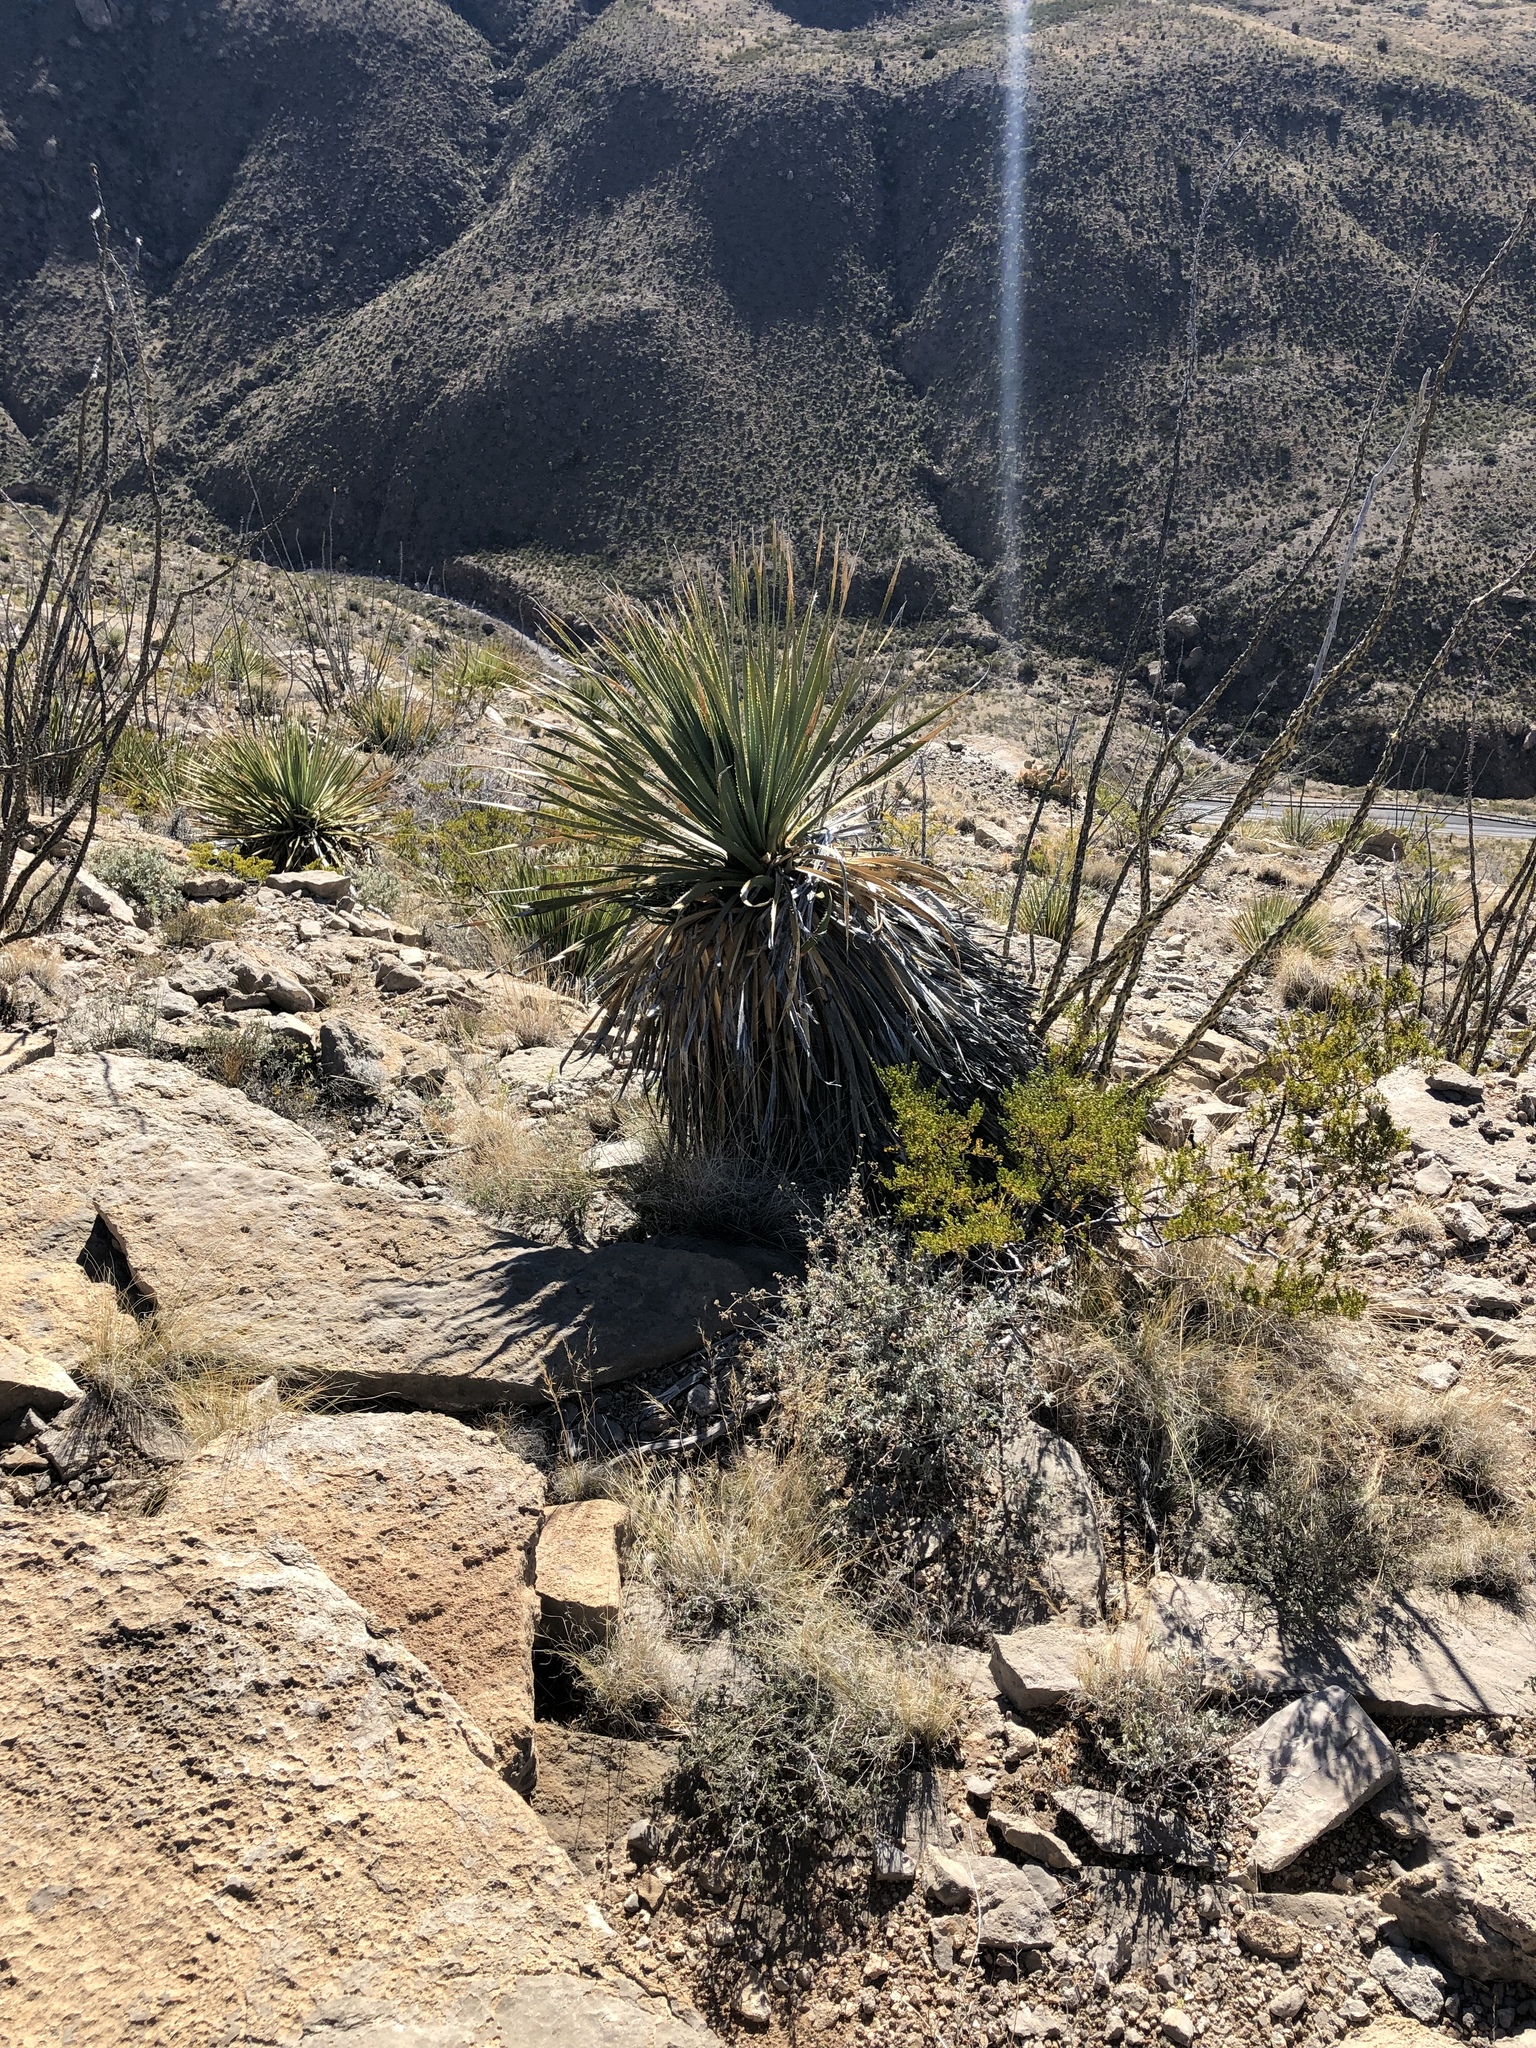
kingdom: Plantae
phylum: Tracheophyta
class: Liliopsida
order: Asparagales
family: Asparagaceae
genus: Yucca
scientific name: Yucca treculiana
